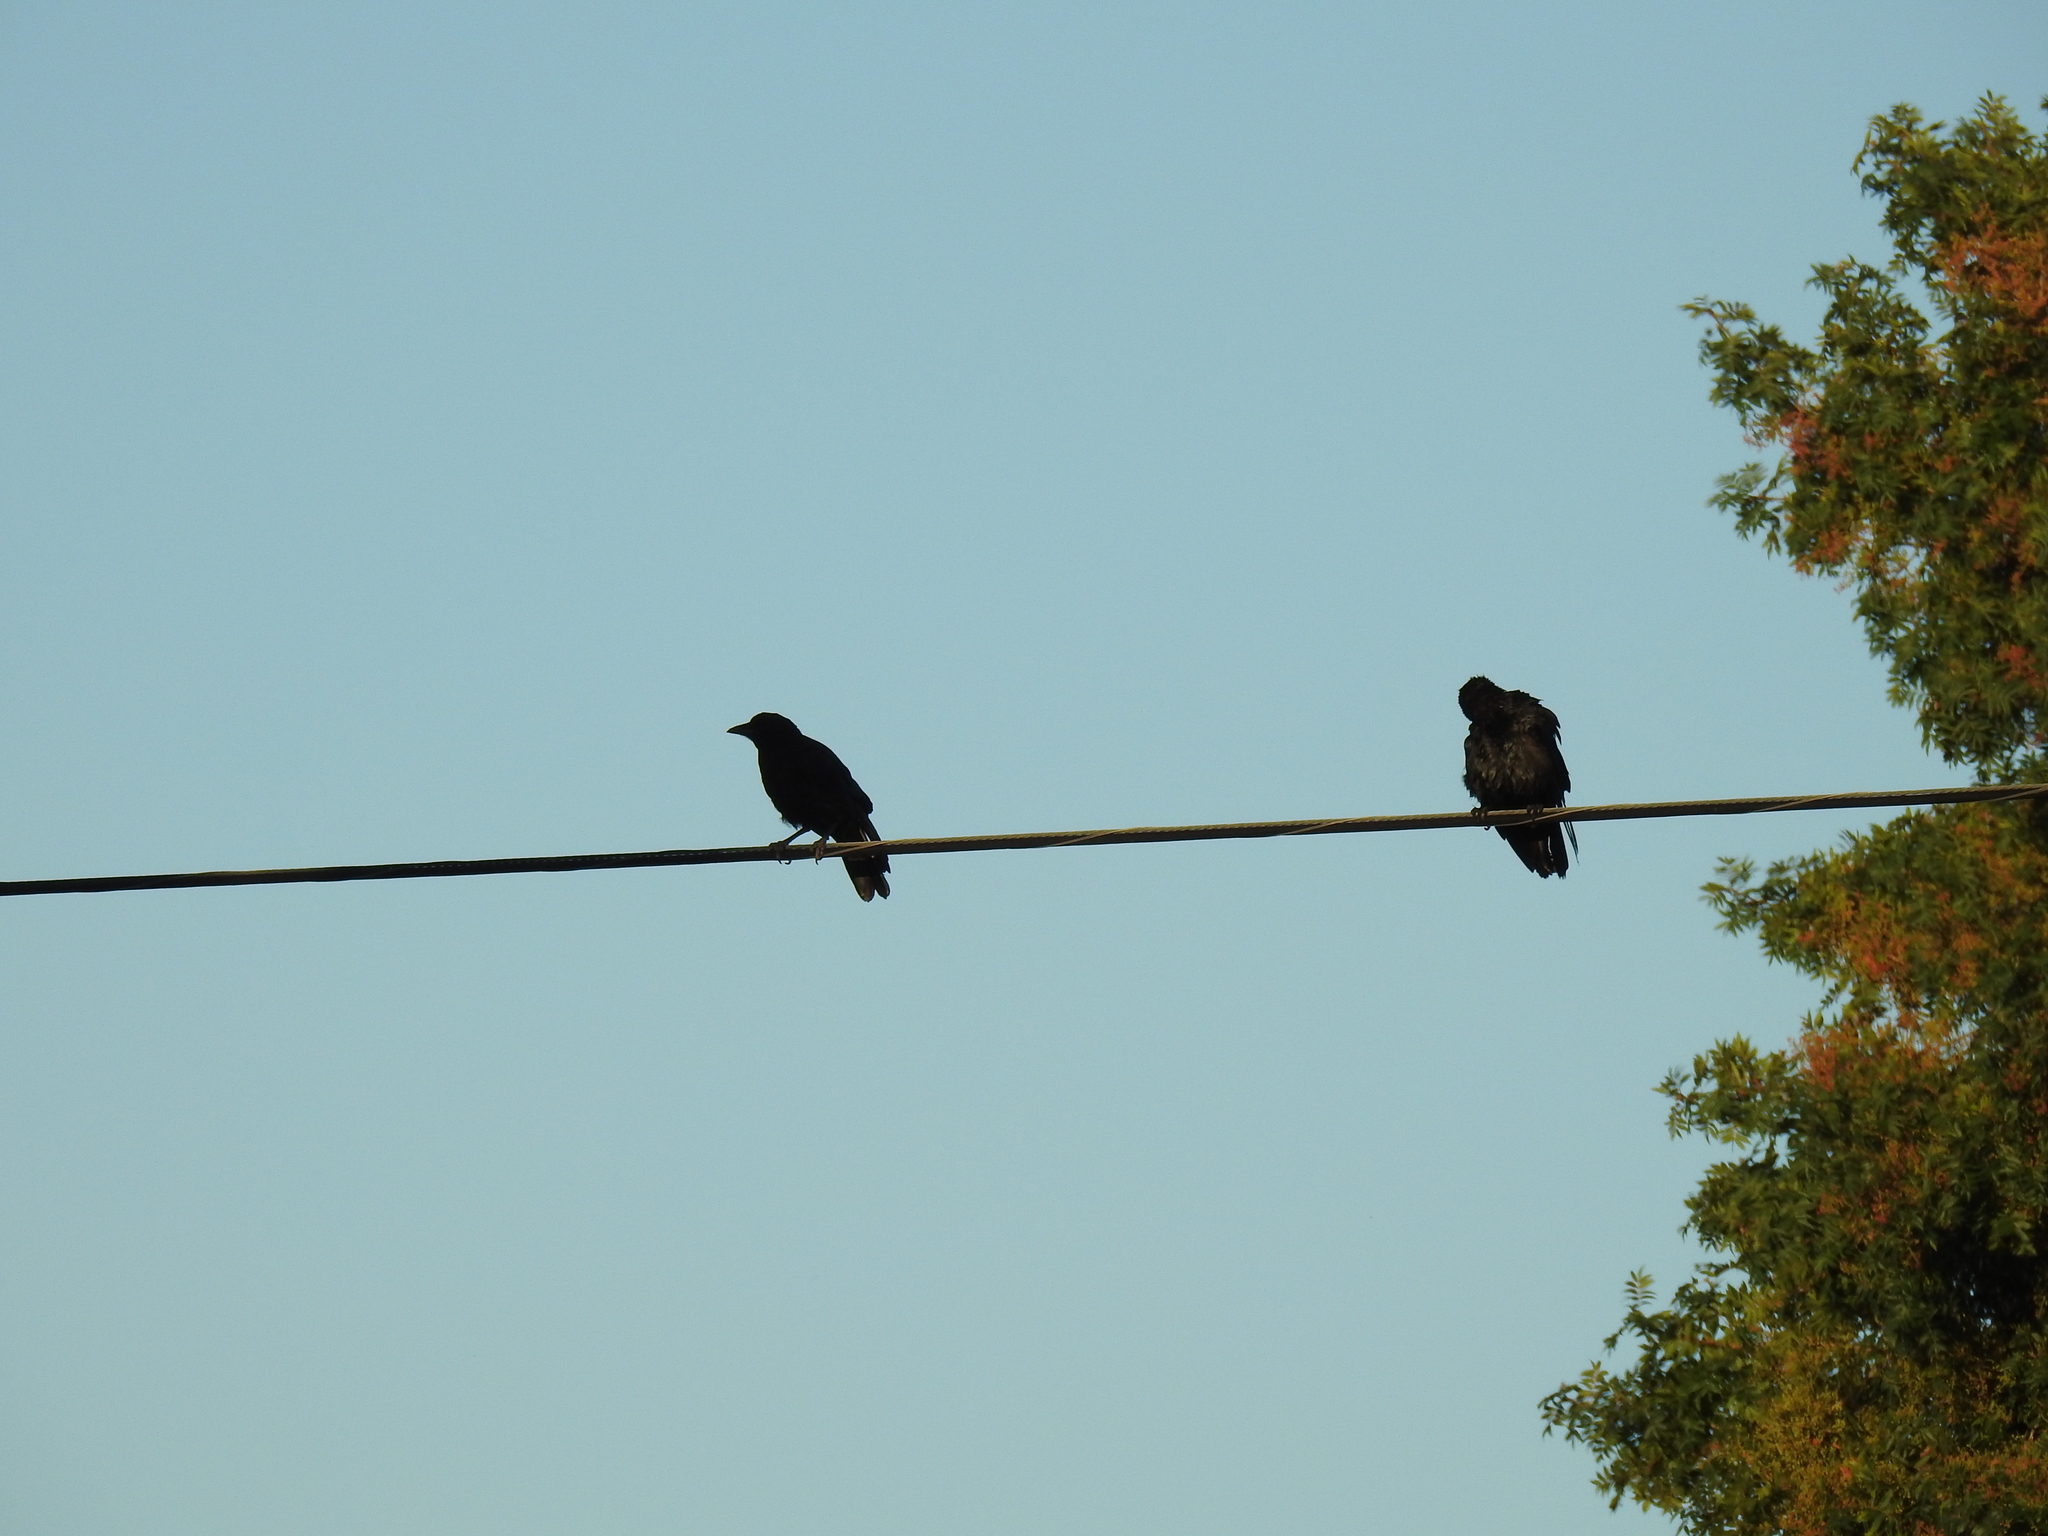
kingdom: Animalia
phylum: Chordata
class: Aves
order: Passeriformes
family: Corvidae
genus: Corvus
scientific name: Corvus brachyrhynchos
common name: American crow
